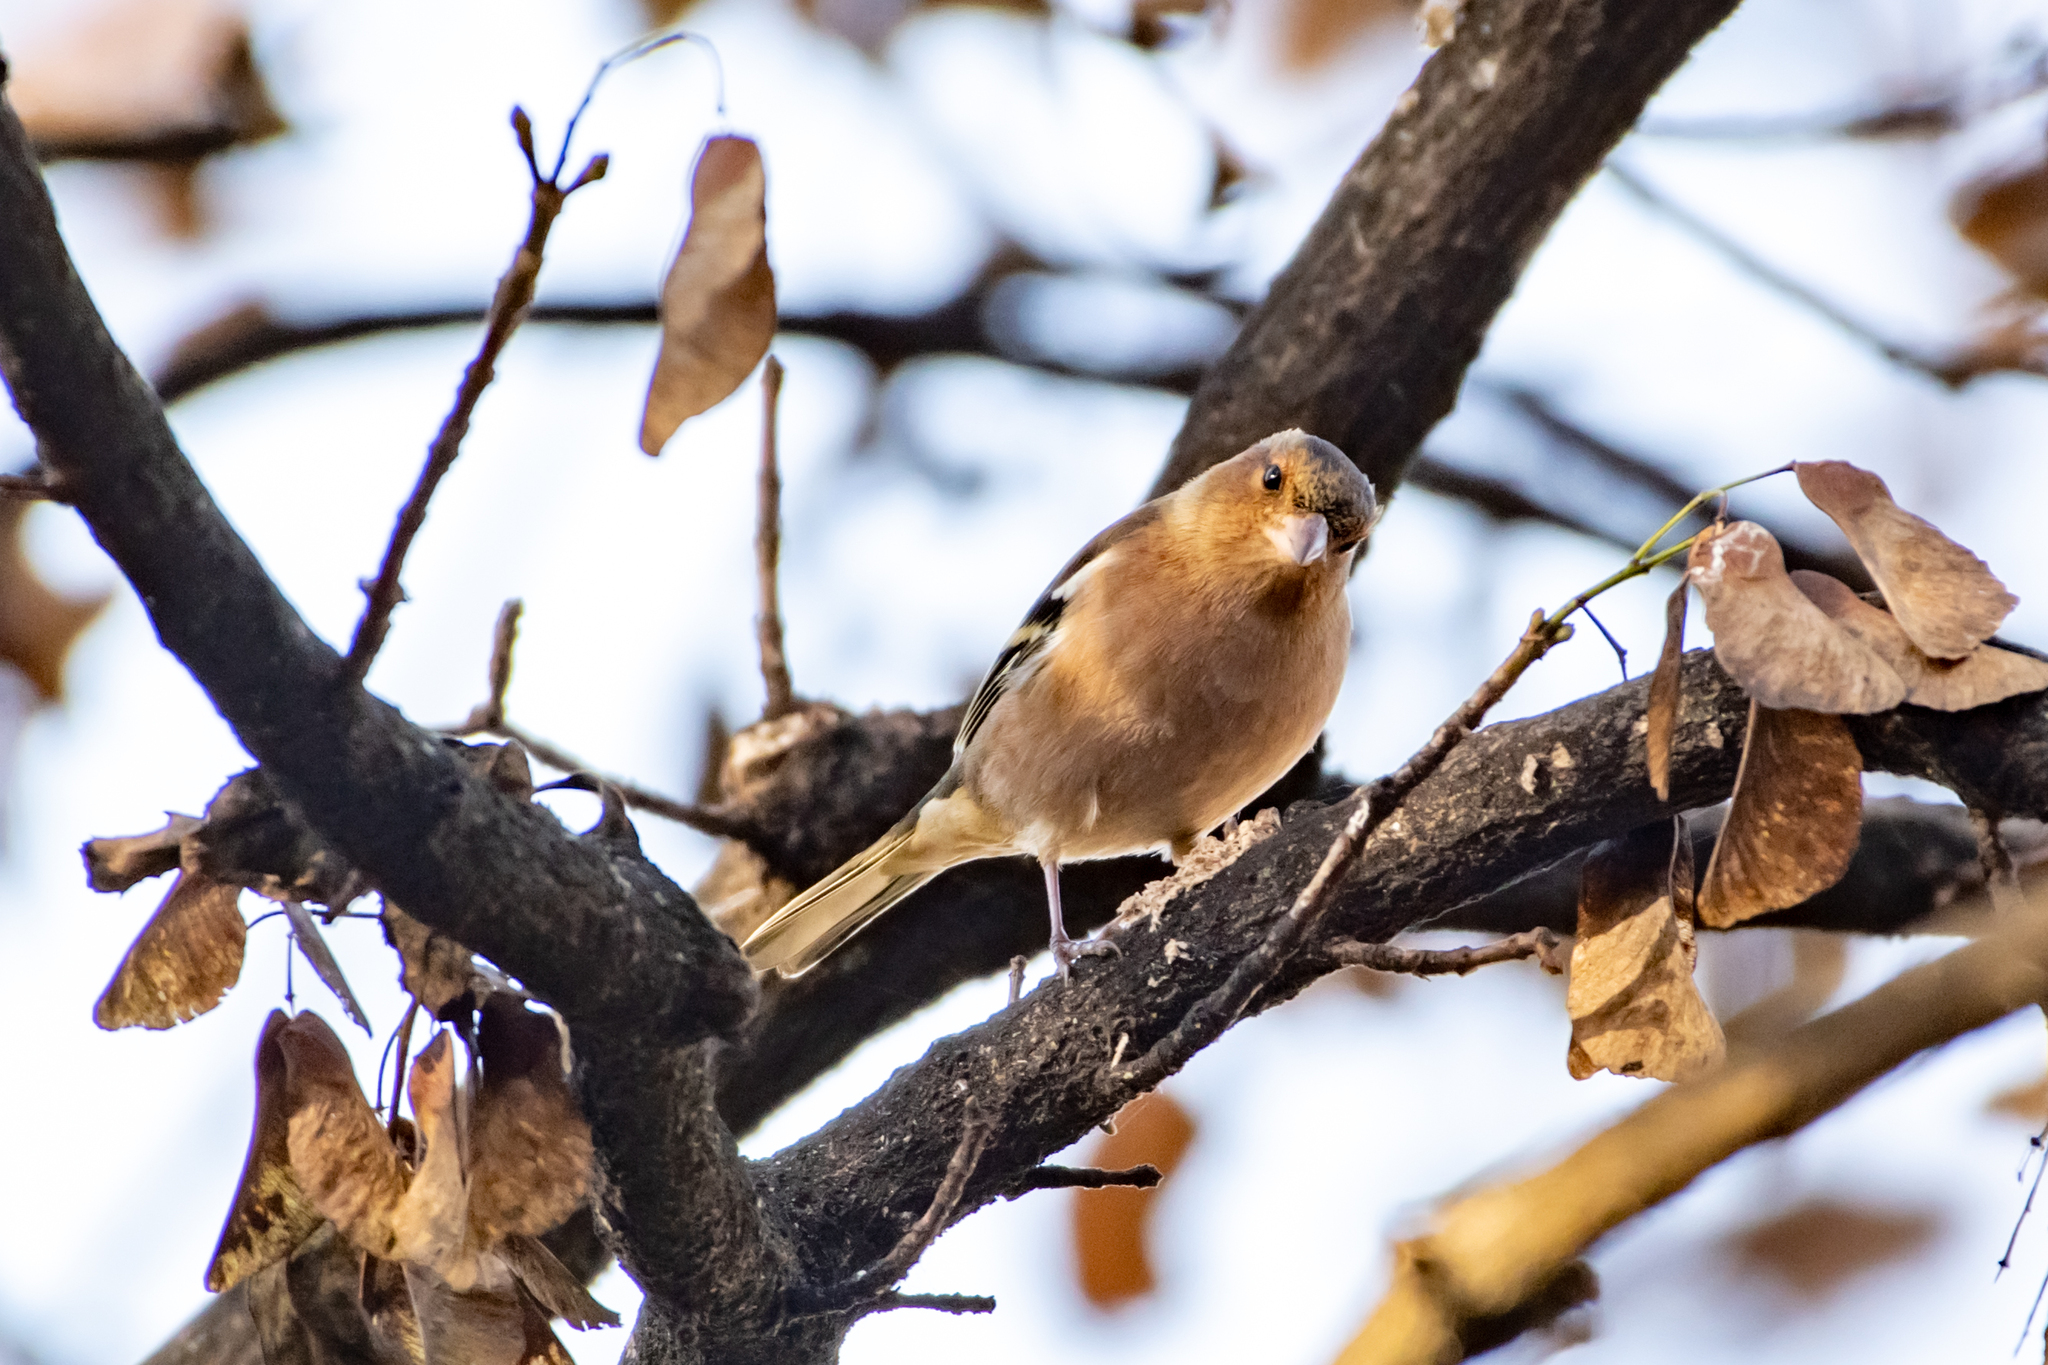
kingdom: Animalia
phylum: Chordata
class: Aves
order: Passeriformes
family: Fringillidae
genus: Fringilla
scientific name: Fringilla coelebs
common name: Common chaffinch
